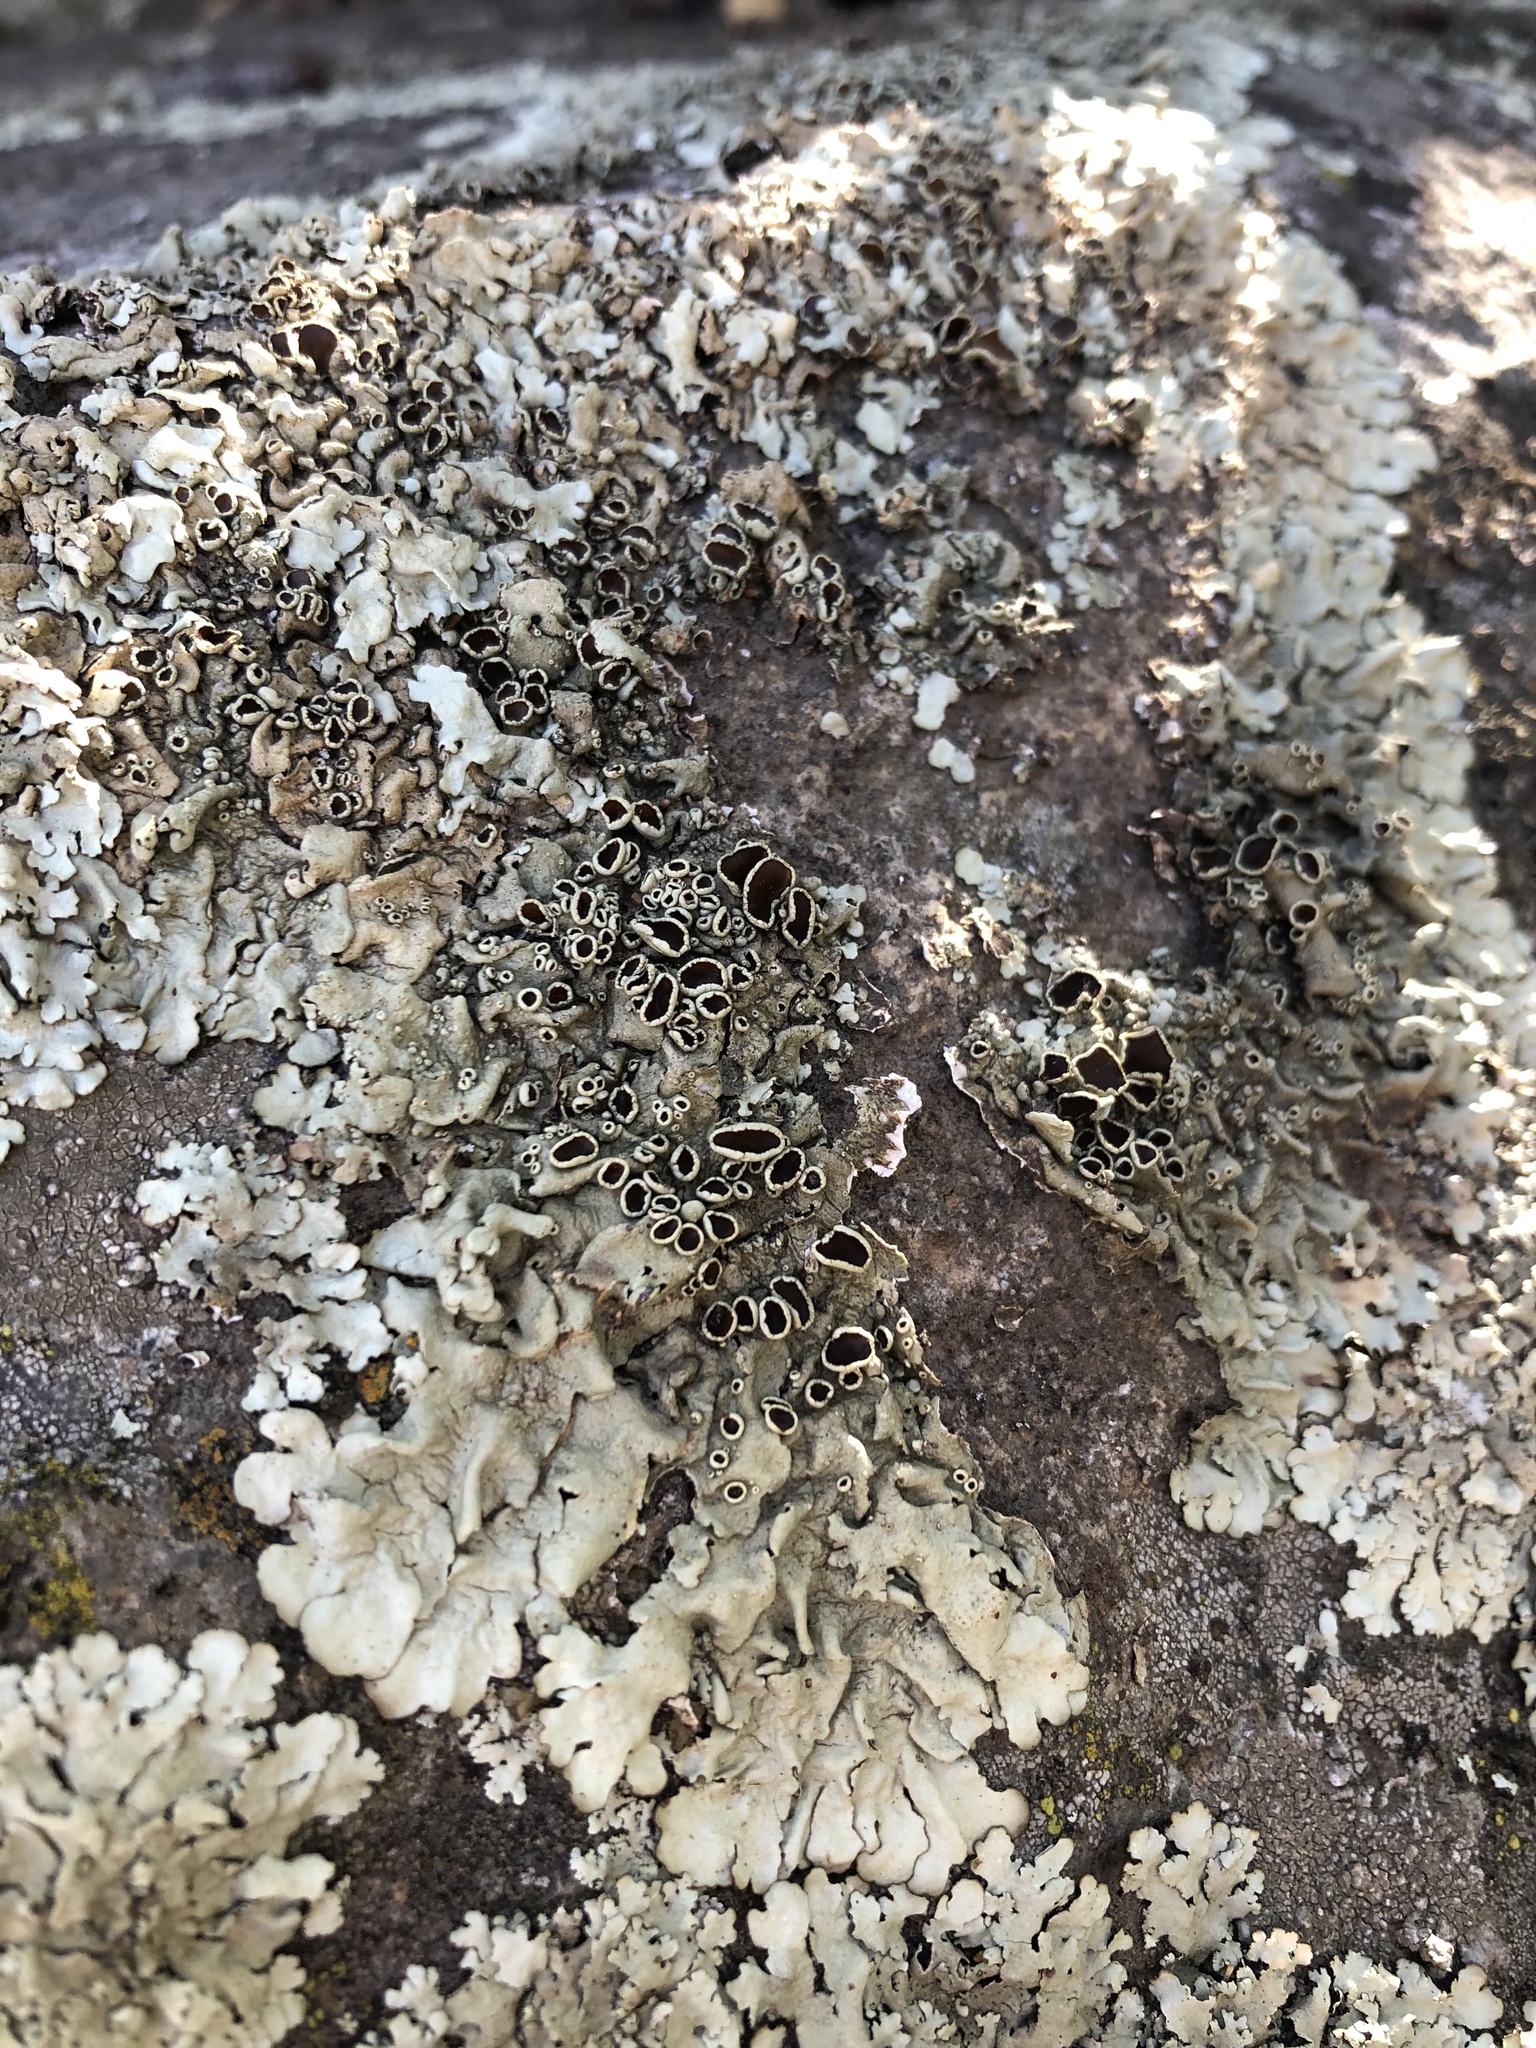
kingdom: Fungi
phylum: Ascomycota
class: Lecanoromycetes
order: Lecanorales
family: Parmeliaceae
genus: Xanthoparmelia
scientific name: Xanthoparmelia lineola
